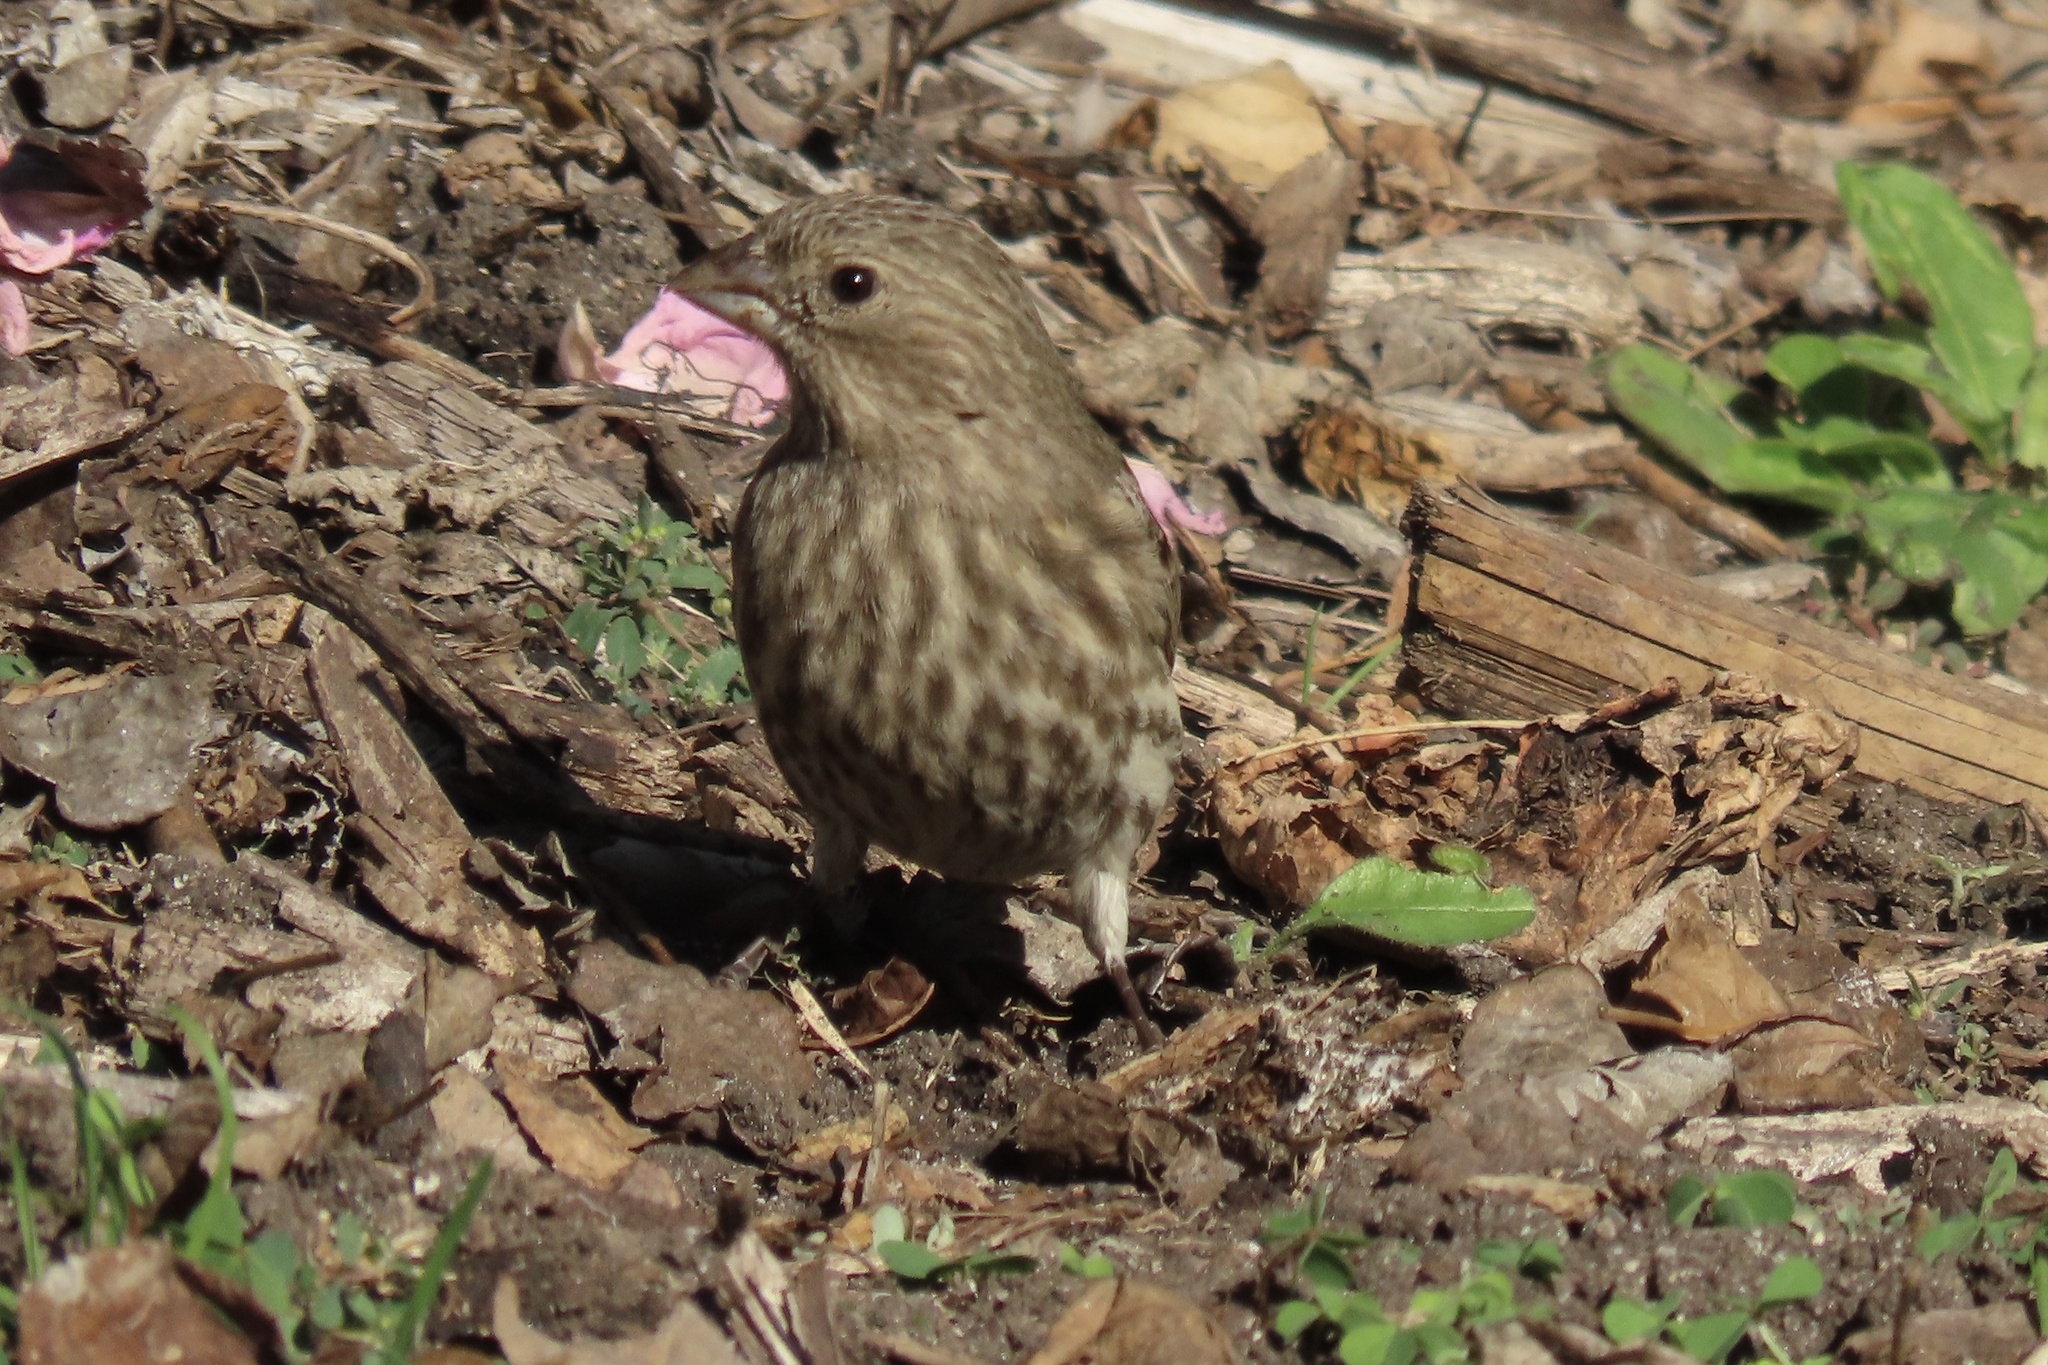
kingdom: Animalia
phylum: Chordata
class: Aves
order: Passeriformes
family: Fringillidae
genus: Haemorhous
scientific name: Haemorhous mexicanus
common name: House finch
